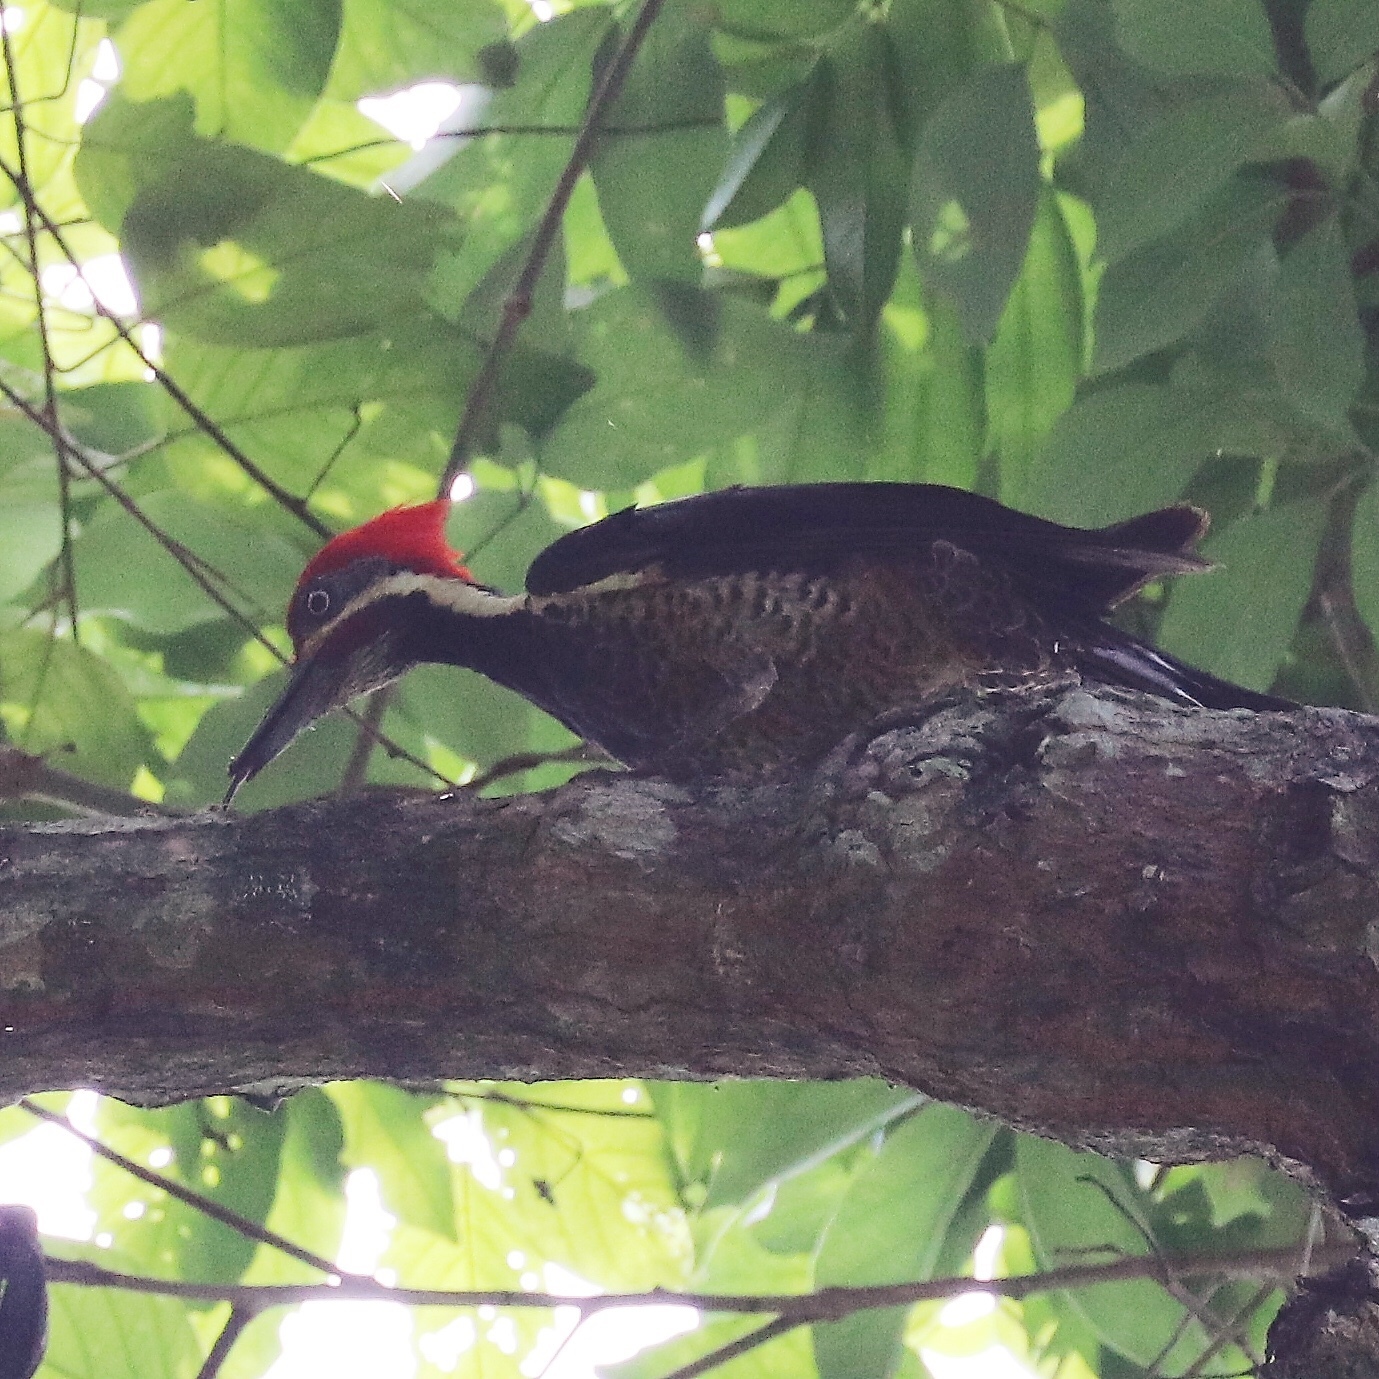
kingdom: Animalia
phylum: Chordata
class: Aves
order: Piciformes
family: Picidae
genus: Dryocopus
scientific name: Dryocopus lineatus
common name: Lineated woodpecker
